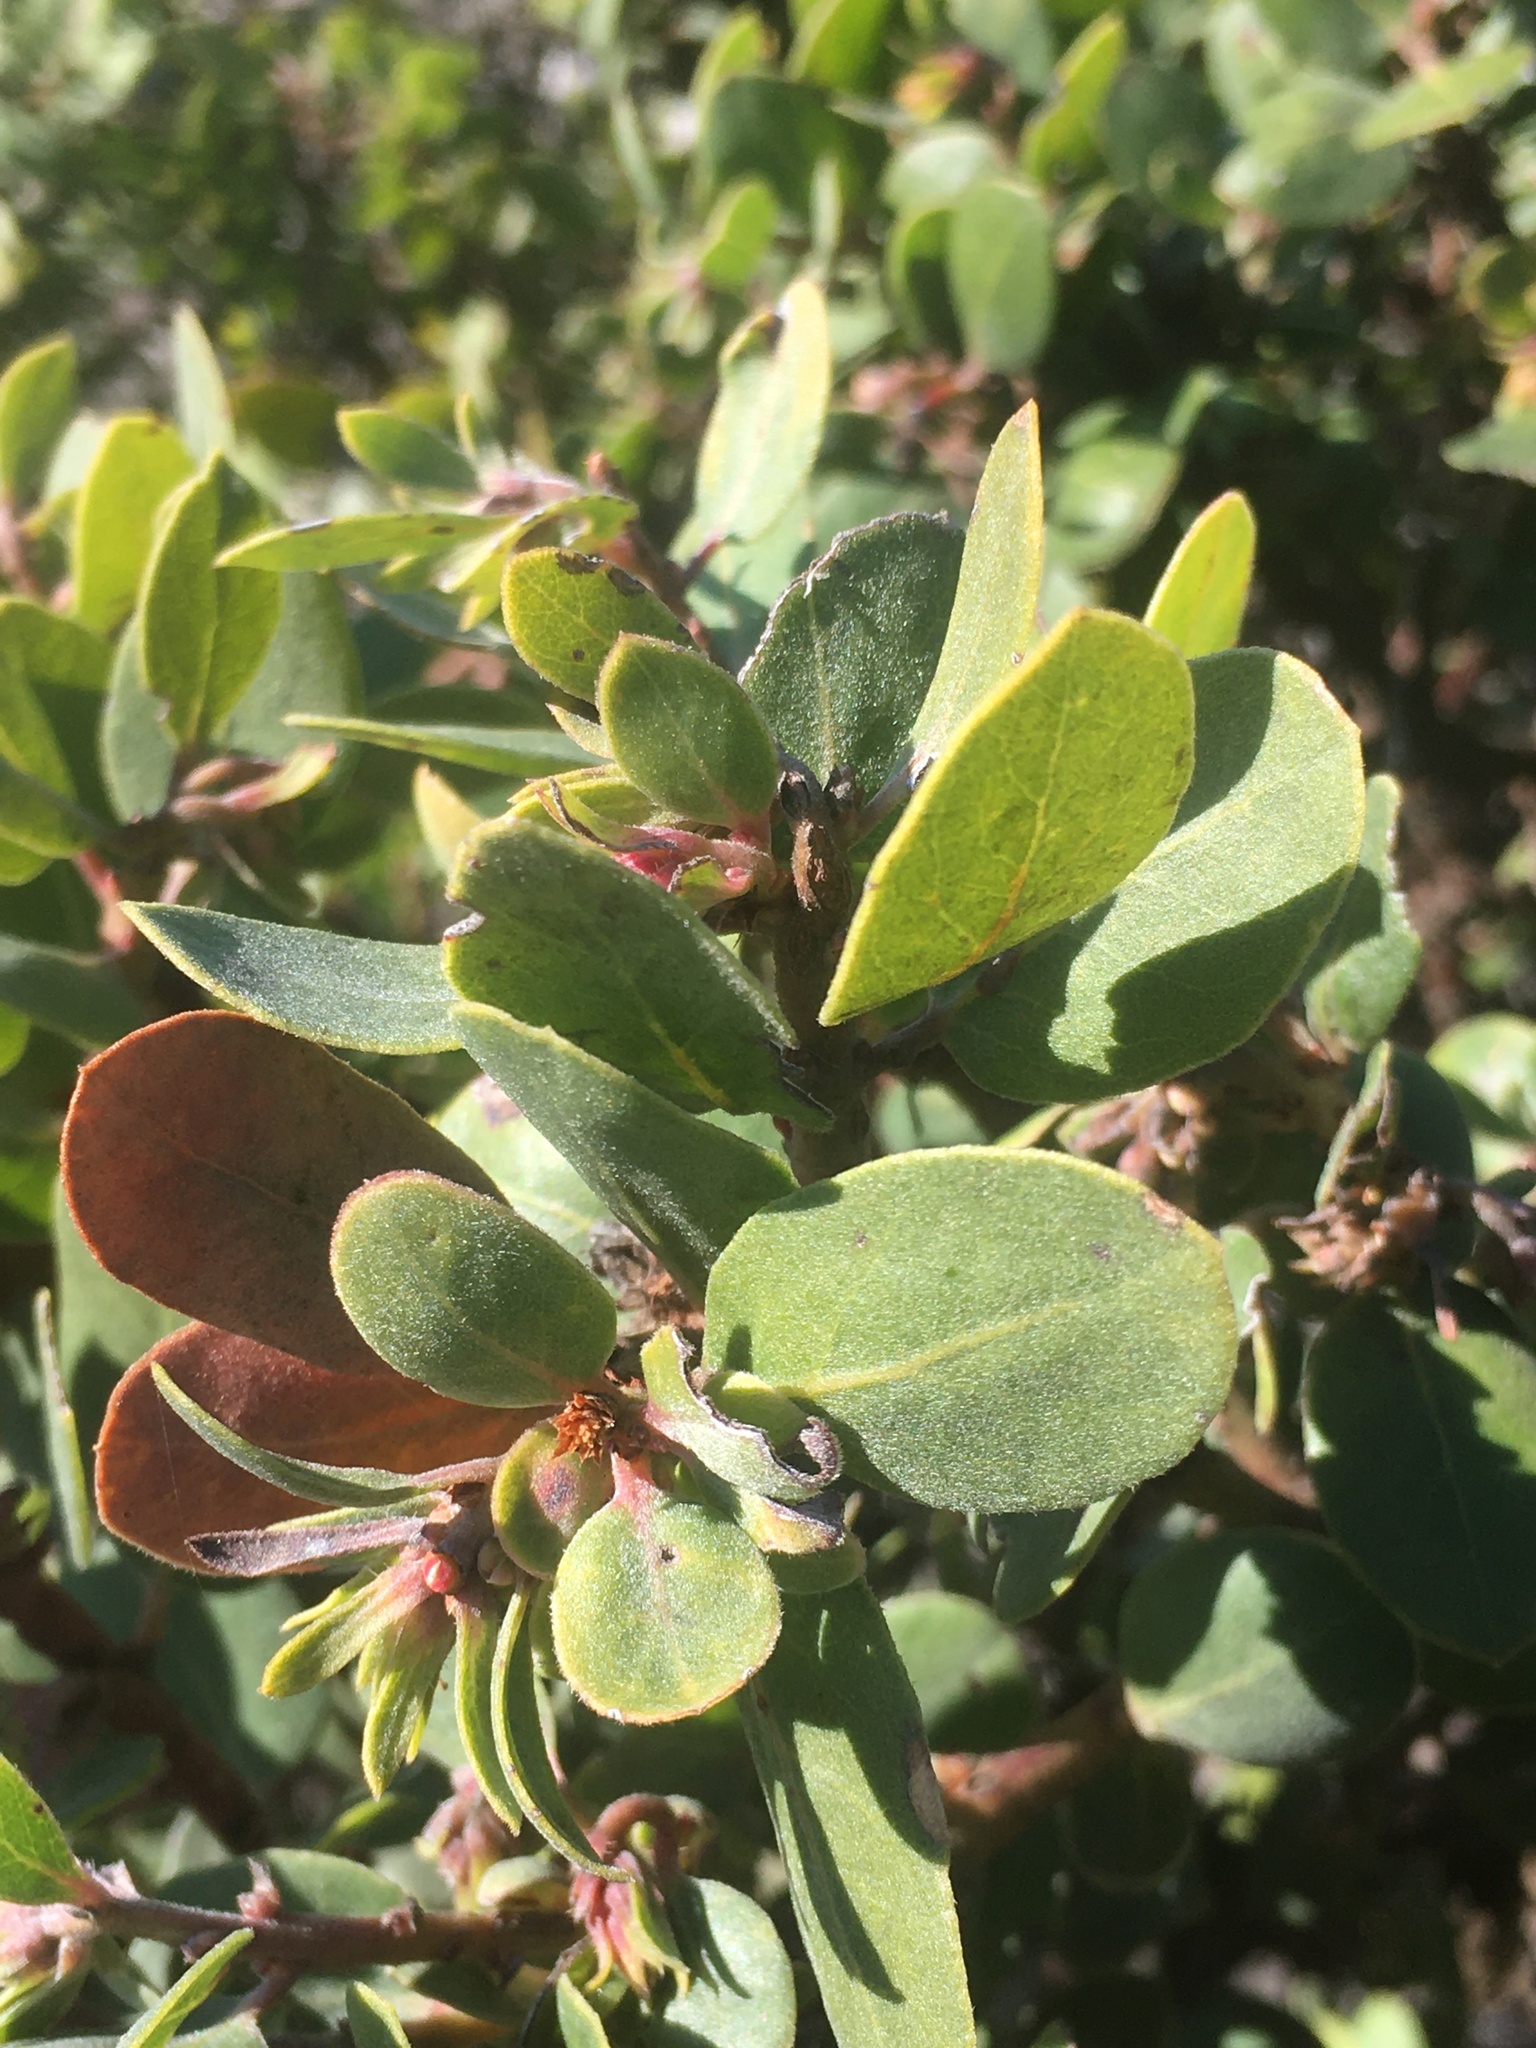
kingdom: Plantae
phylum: Tracheophyta
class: Magnoliopsida
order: Ericales
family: Ericaceae
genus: Arctostaphylos
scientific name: Arctostaphylos morroensis
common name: Morro manzanita
